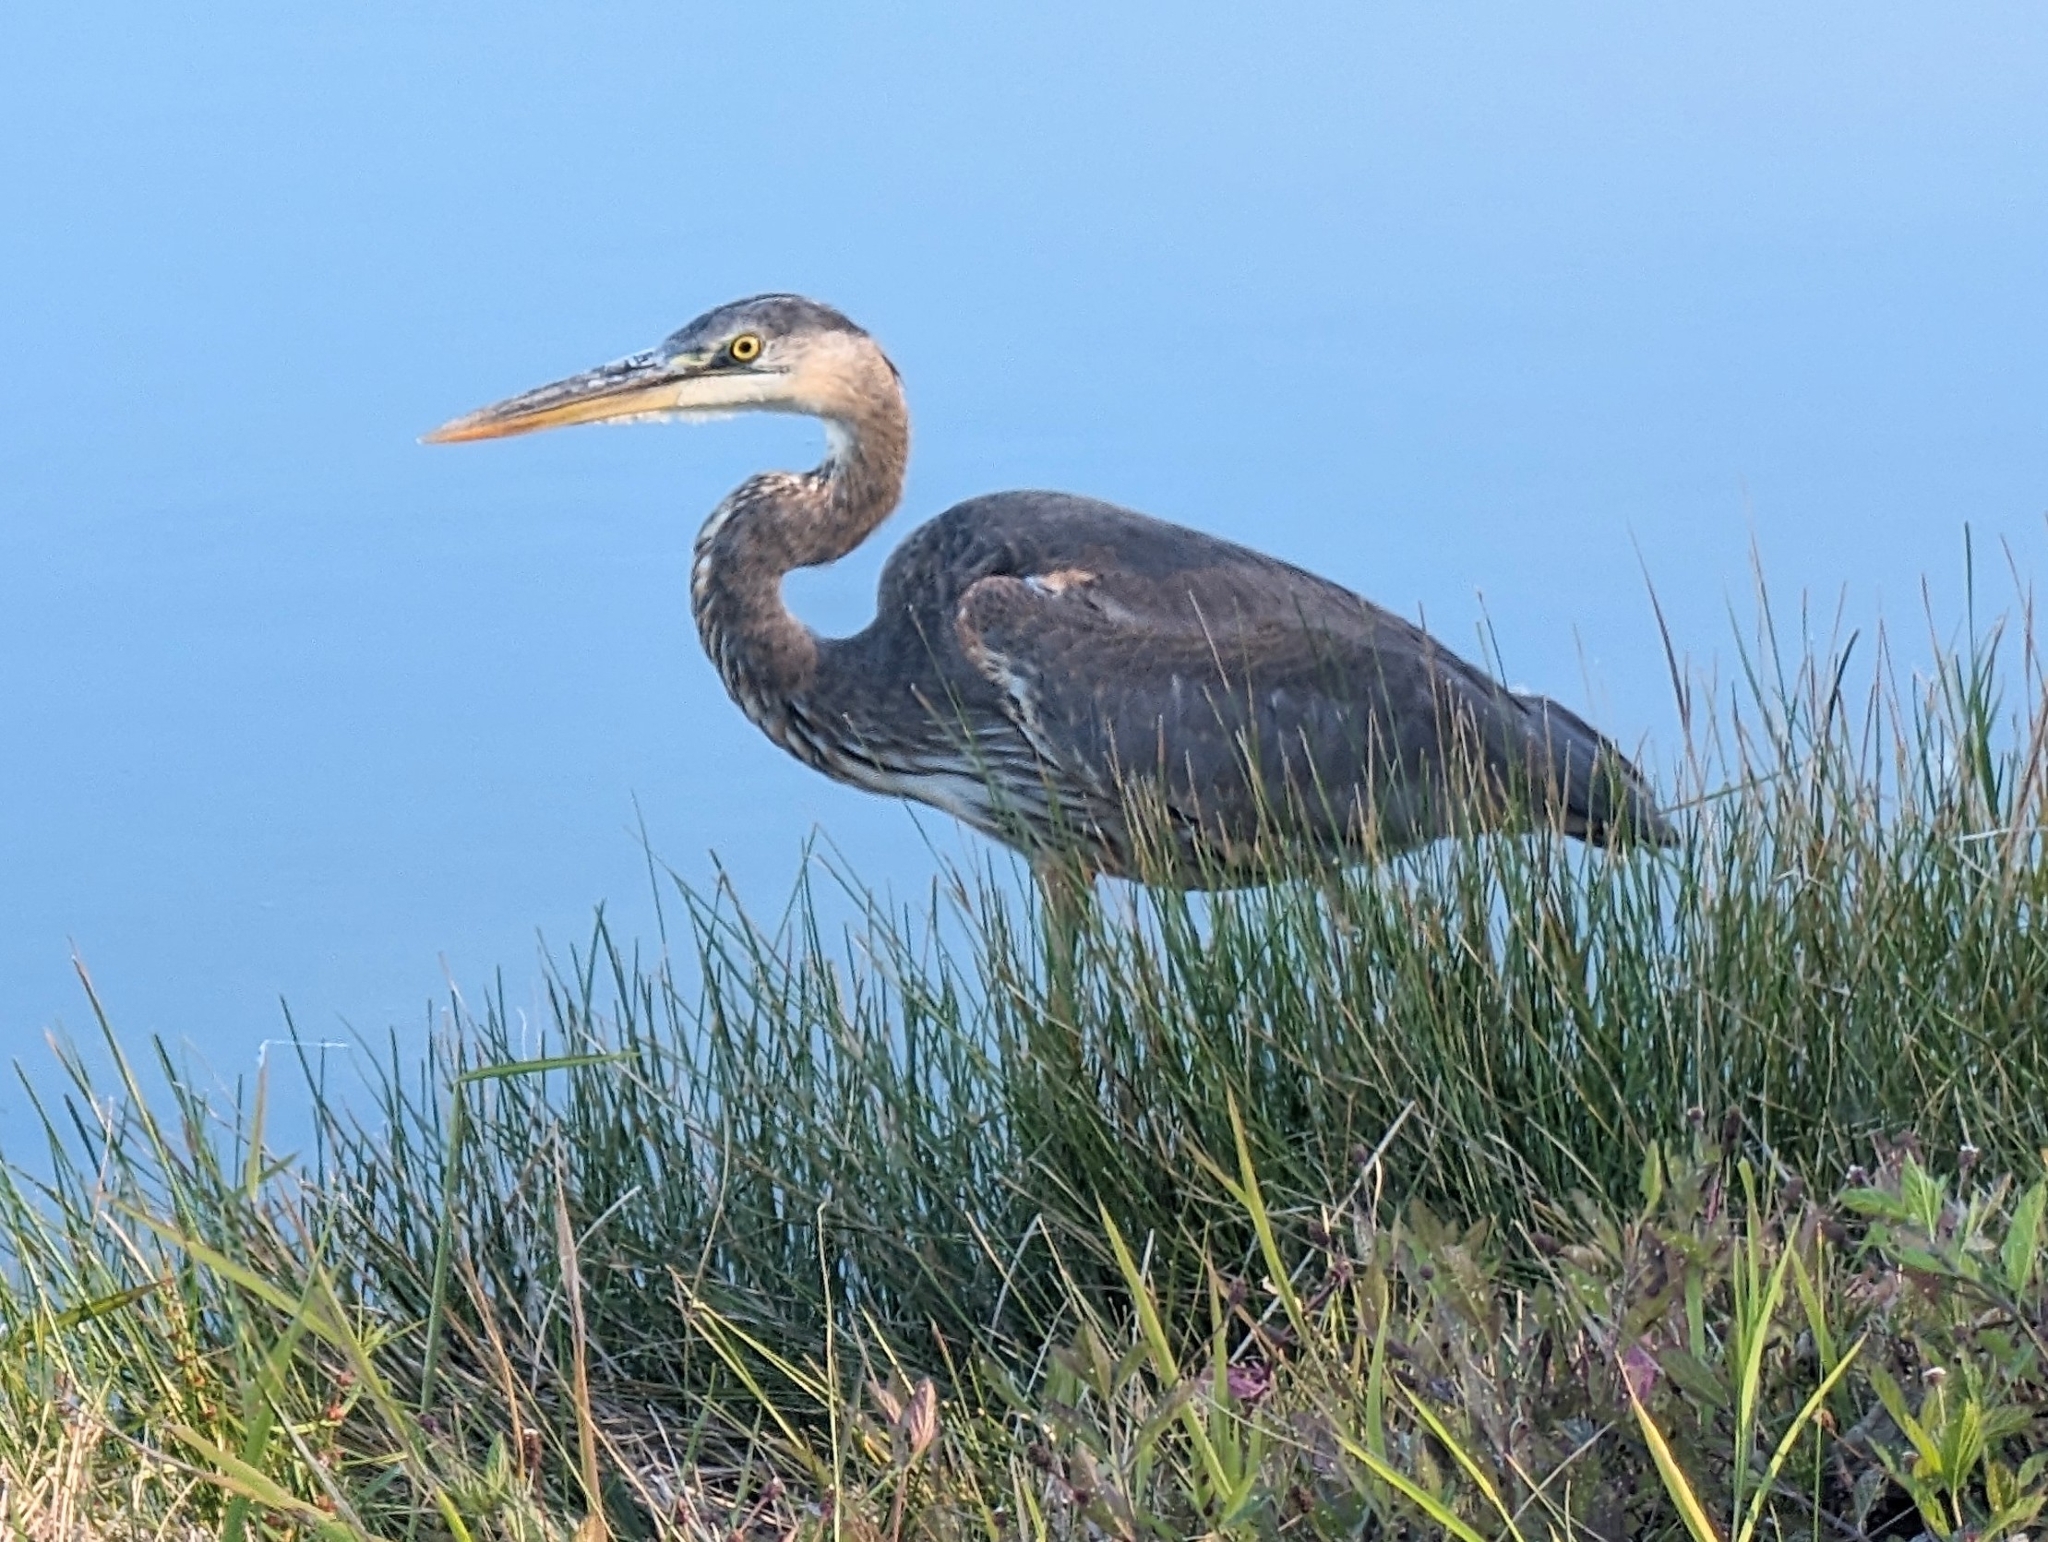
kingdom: Animalia
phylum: Chordata
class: Aves
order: Pelecaniformes
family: Ardeidae
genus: Ardea
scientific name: Ardea herodias
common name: Great blue heron
